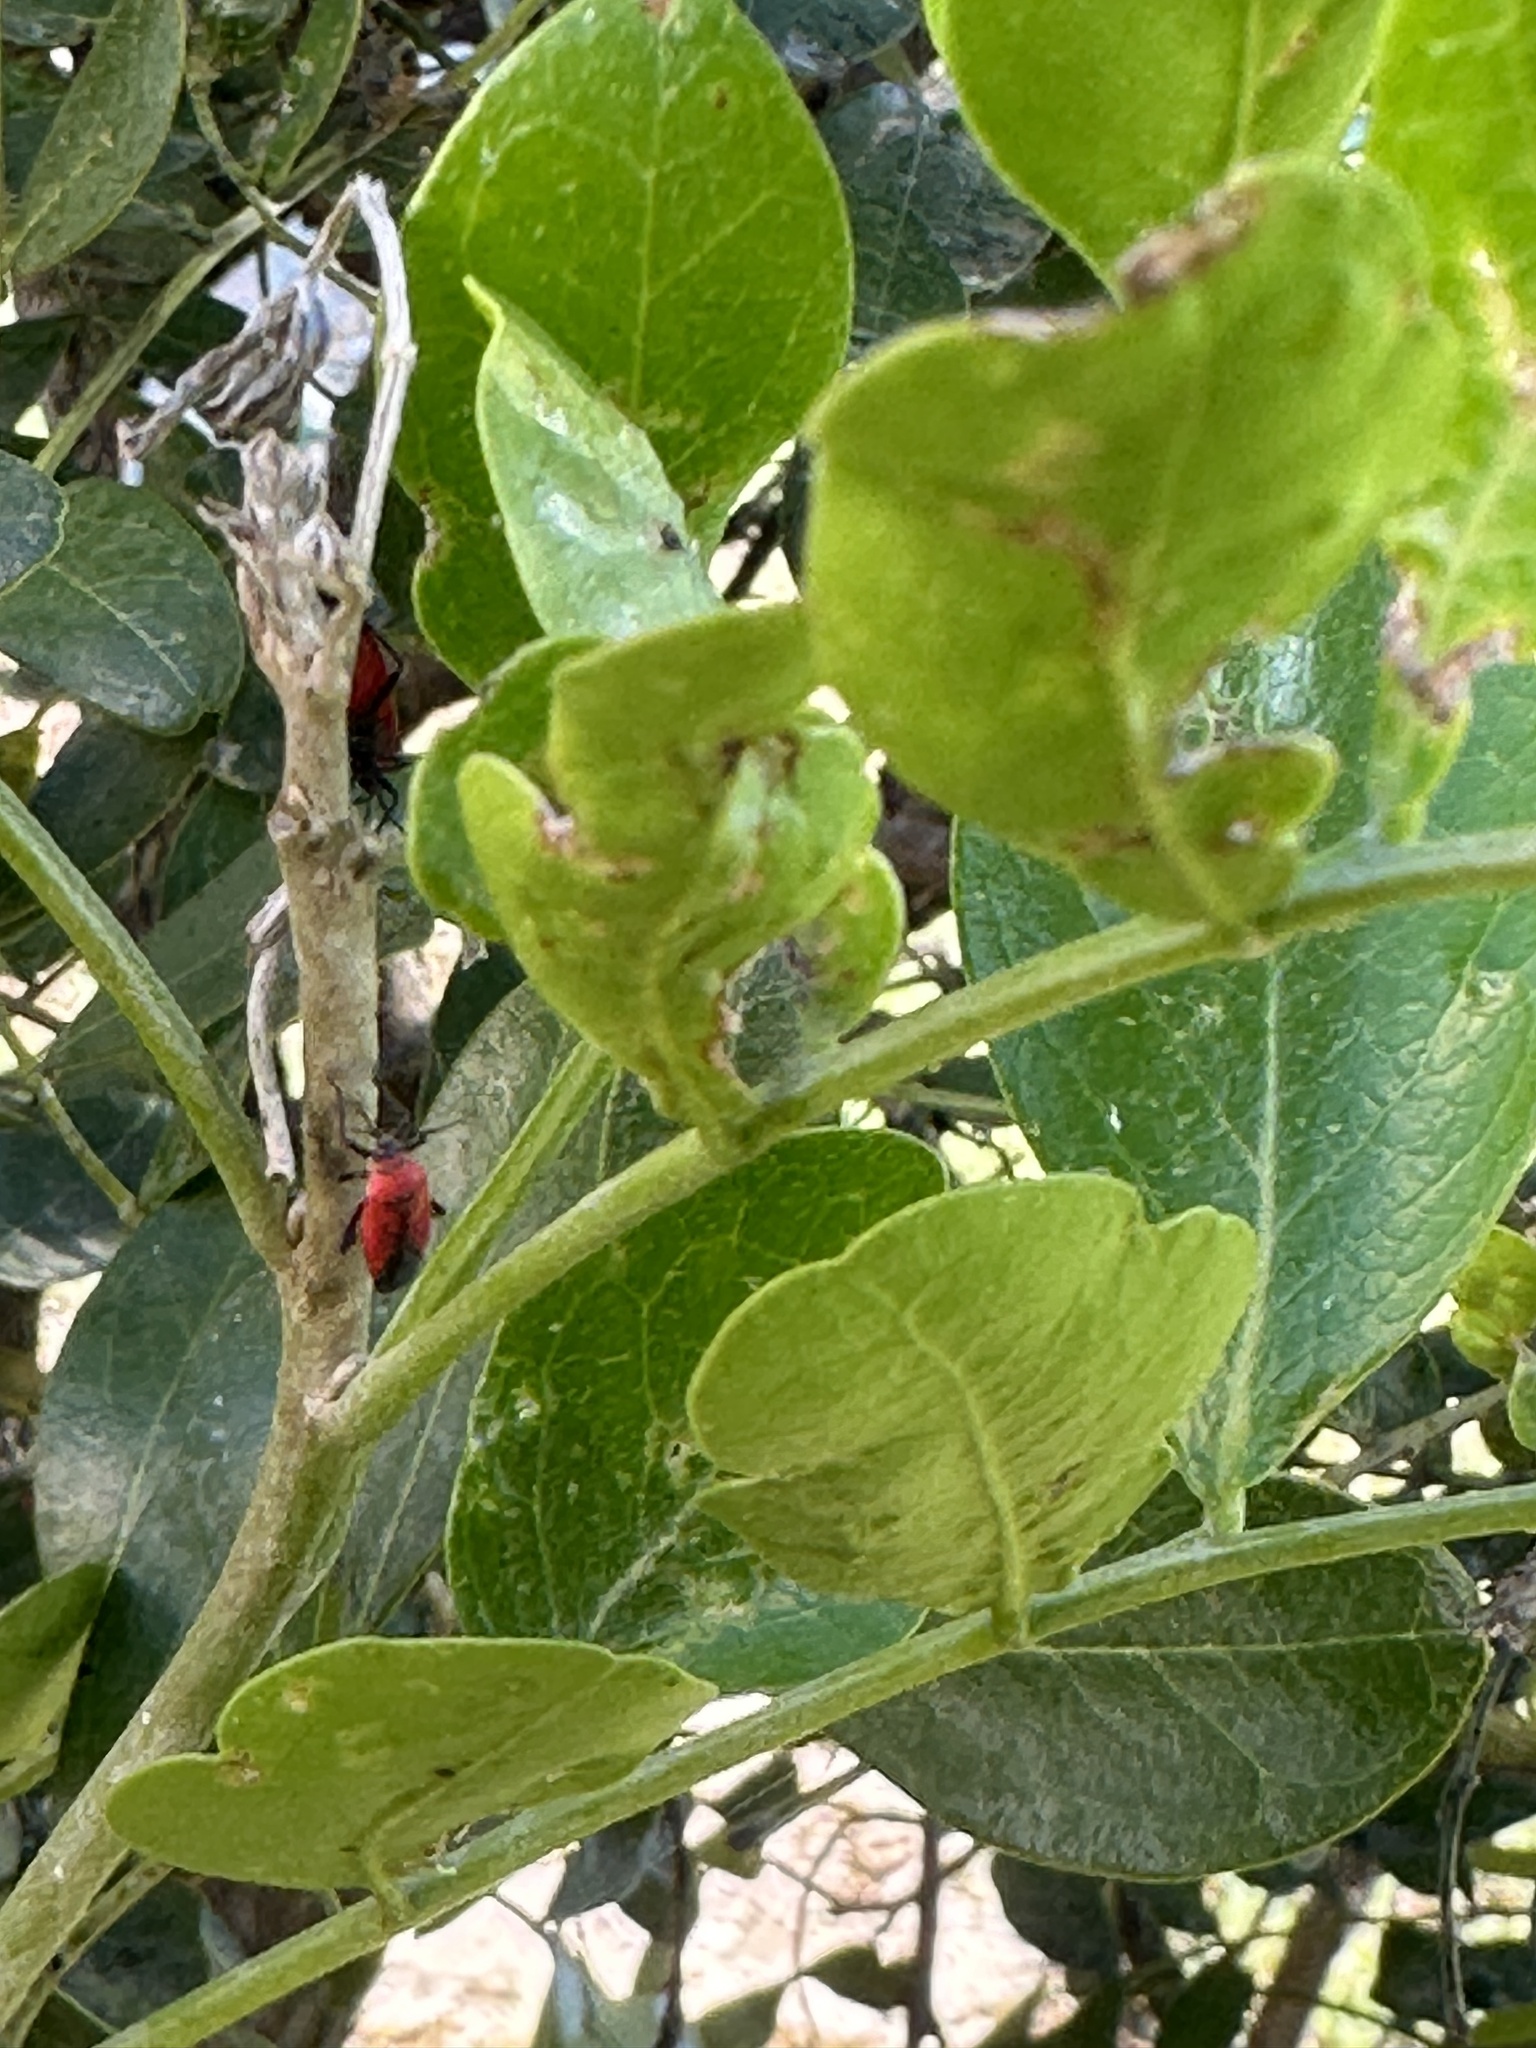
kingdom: Animalia
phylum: Arthropoda
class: Insecta
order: Hemiptera
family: Miridae
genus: Lopidea
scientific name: Lopidea major
